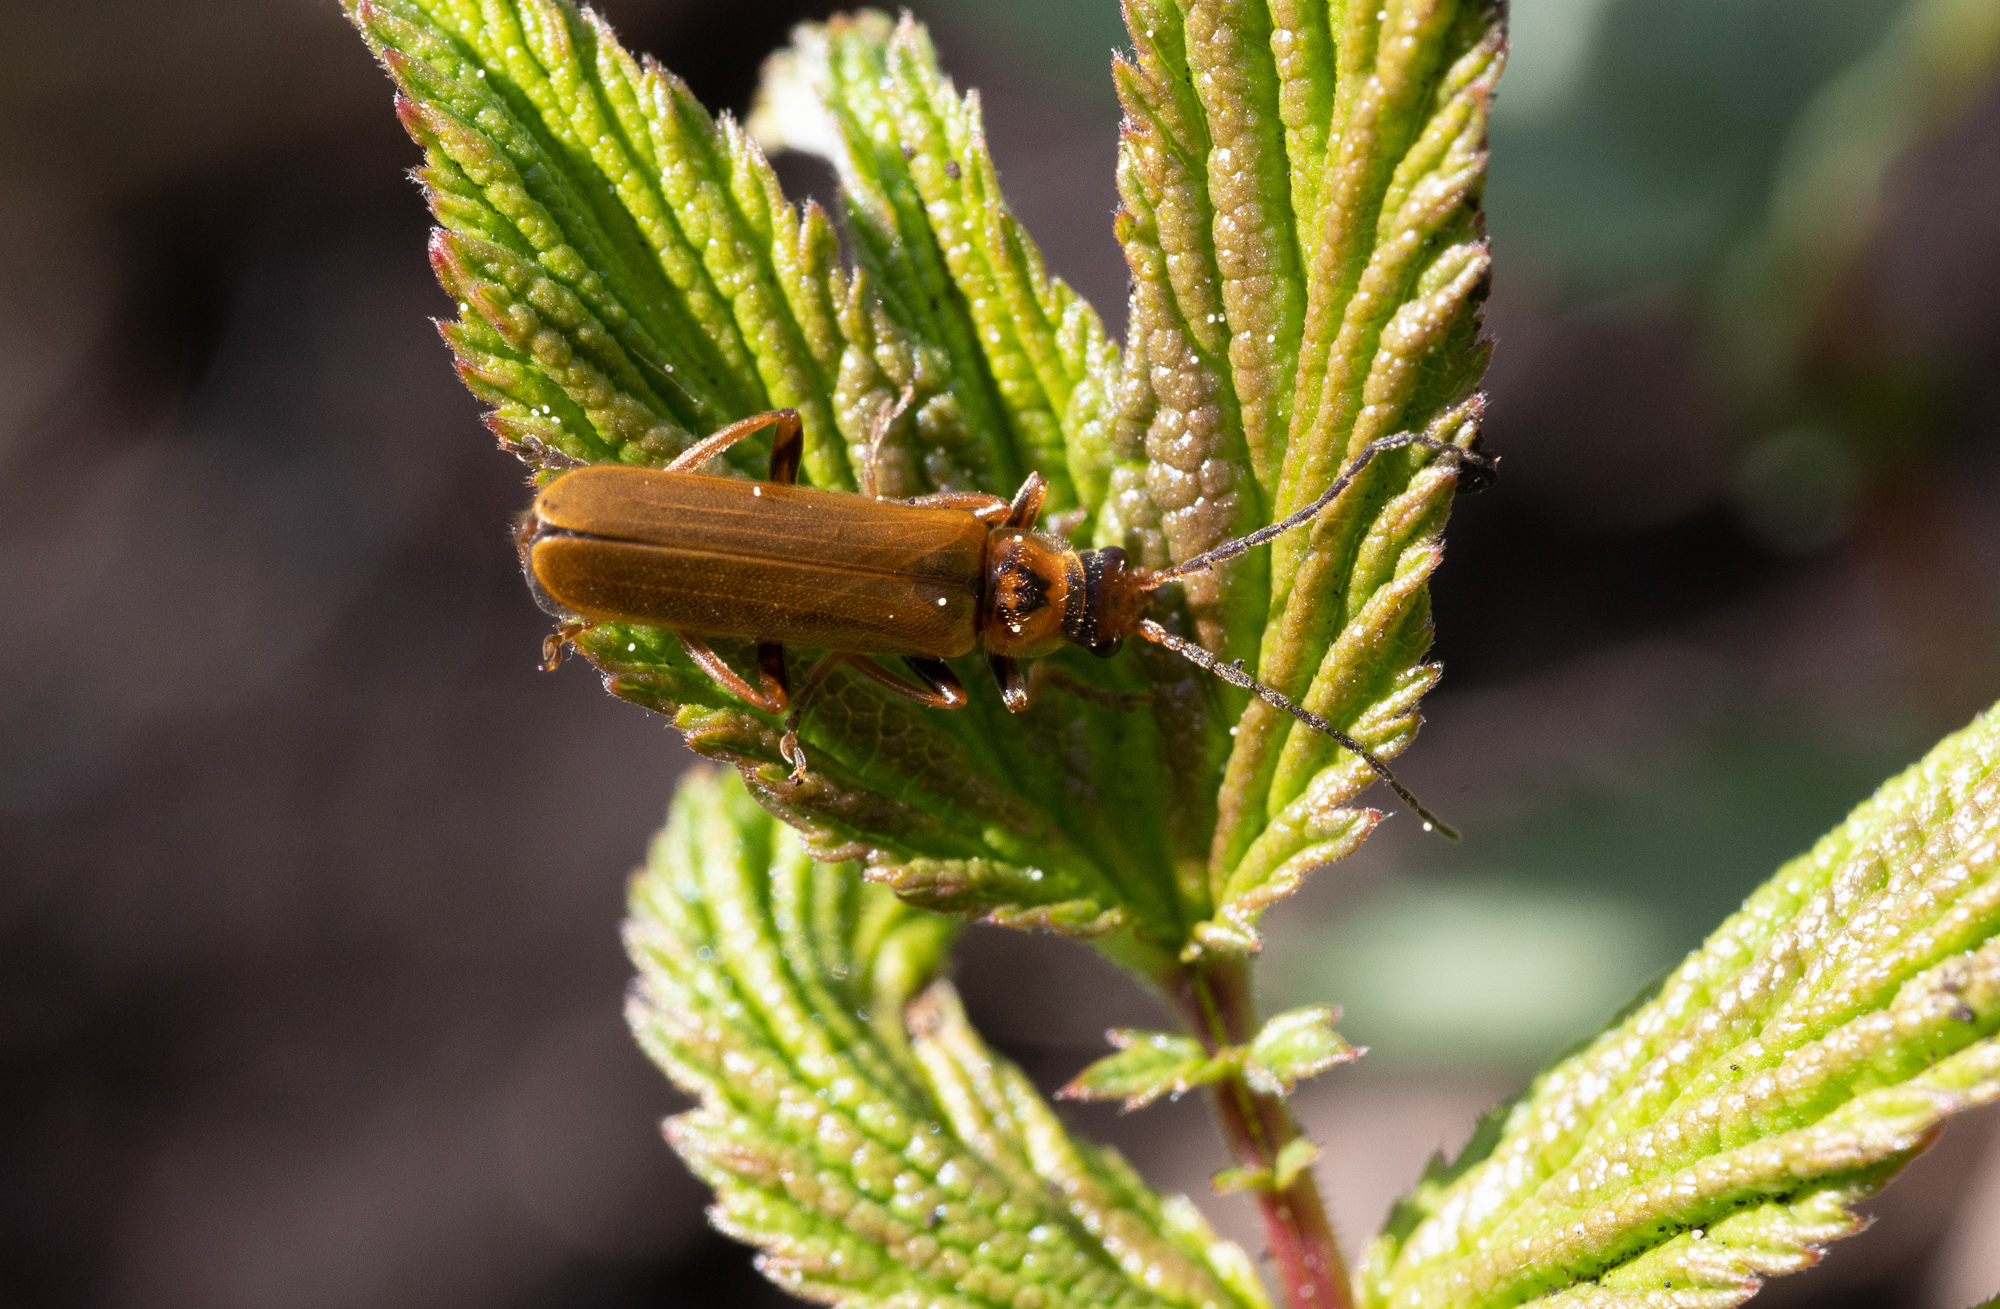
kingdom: Animalia
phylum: Arthropoda
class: Insecta
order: Coleoptera
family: Cantharidae
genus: Cantharis
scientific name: Cantharis figurata
